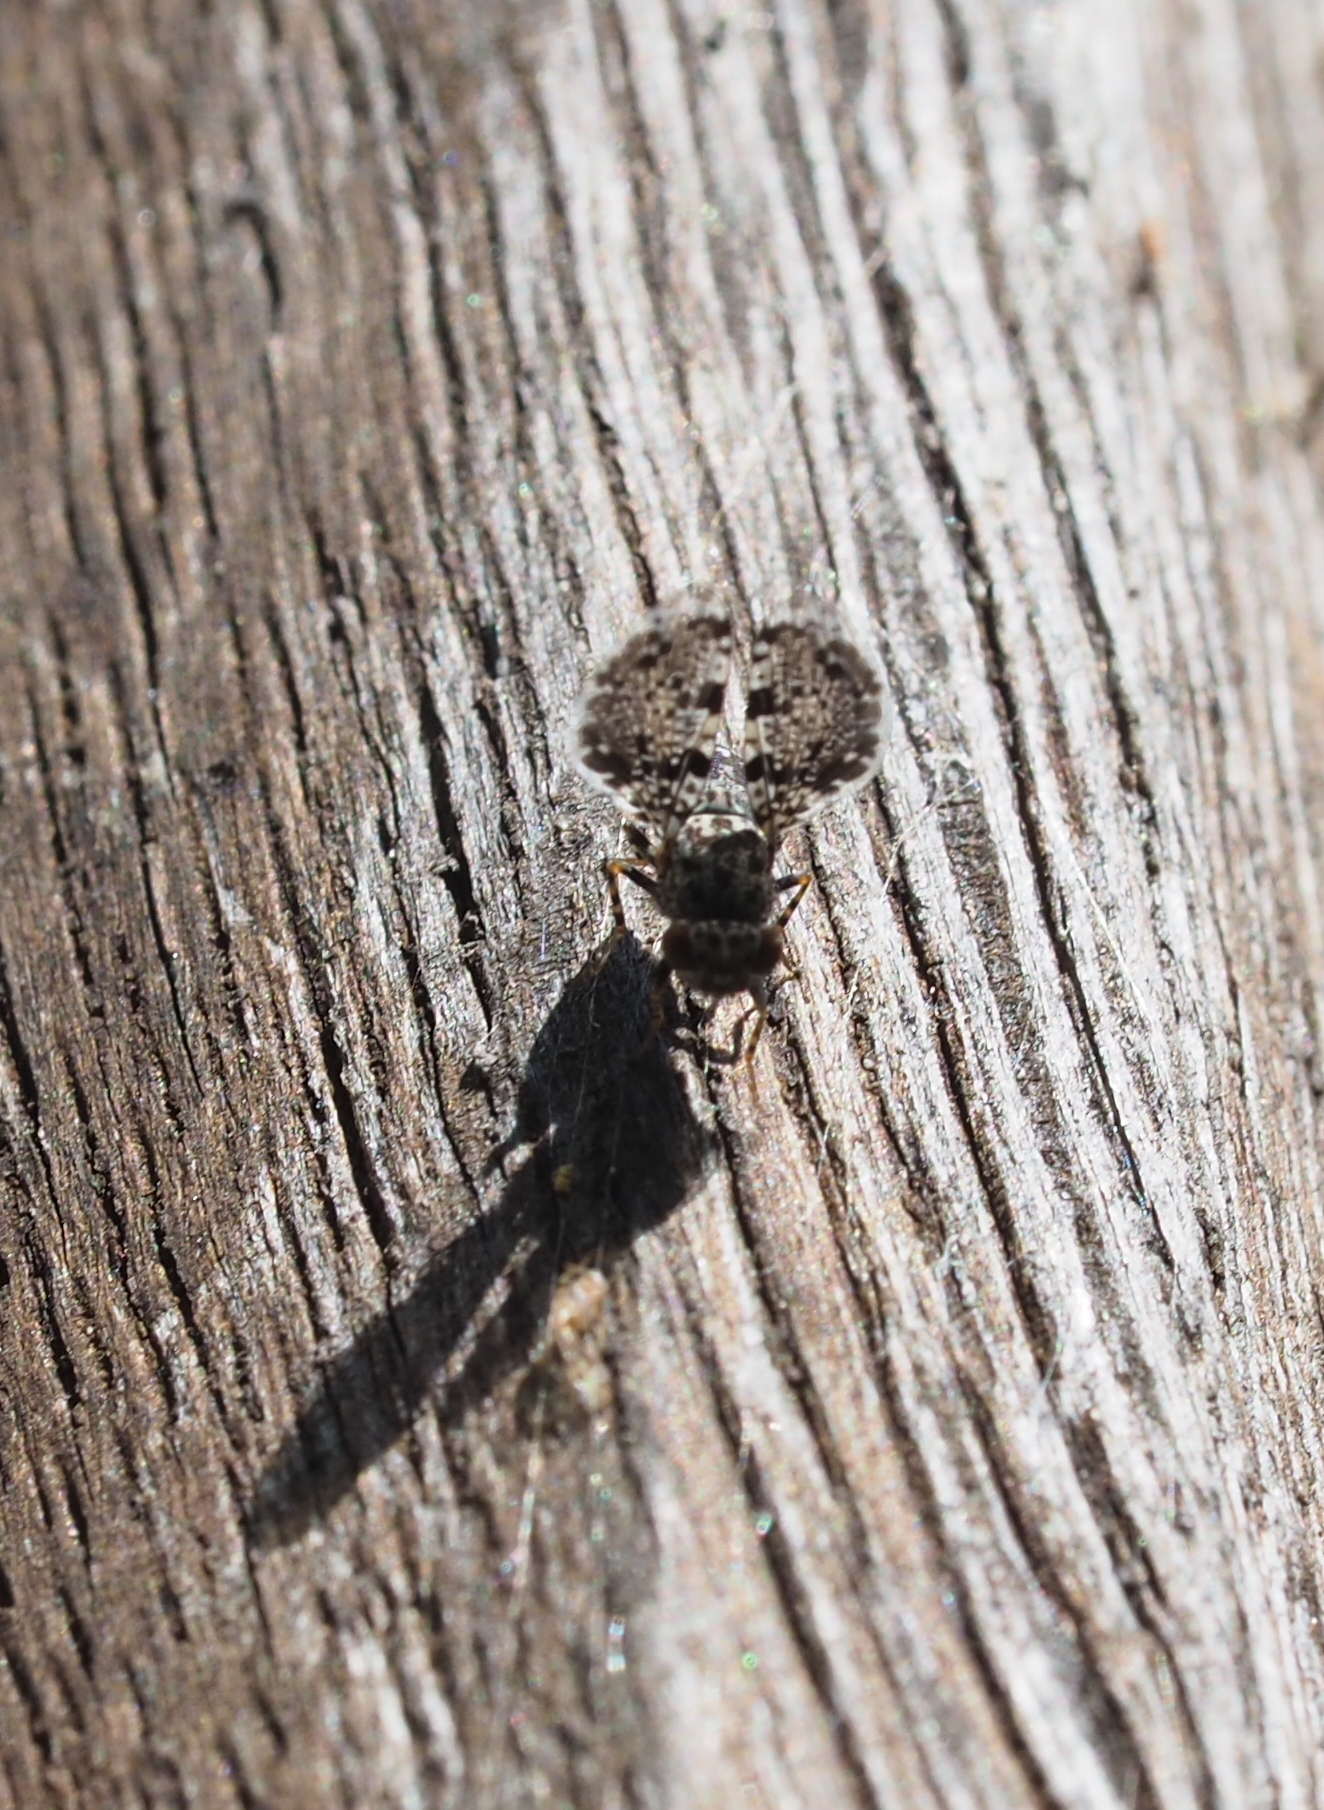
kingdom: Animalia
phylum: Arthropoda
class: Insecta
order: Diptera
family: Ulidiidae
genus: Callopistromyia
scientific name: Callopistromyia annulipes
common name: Peacock fly
